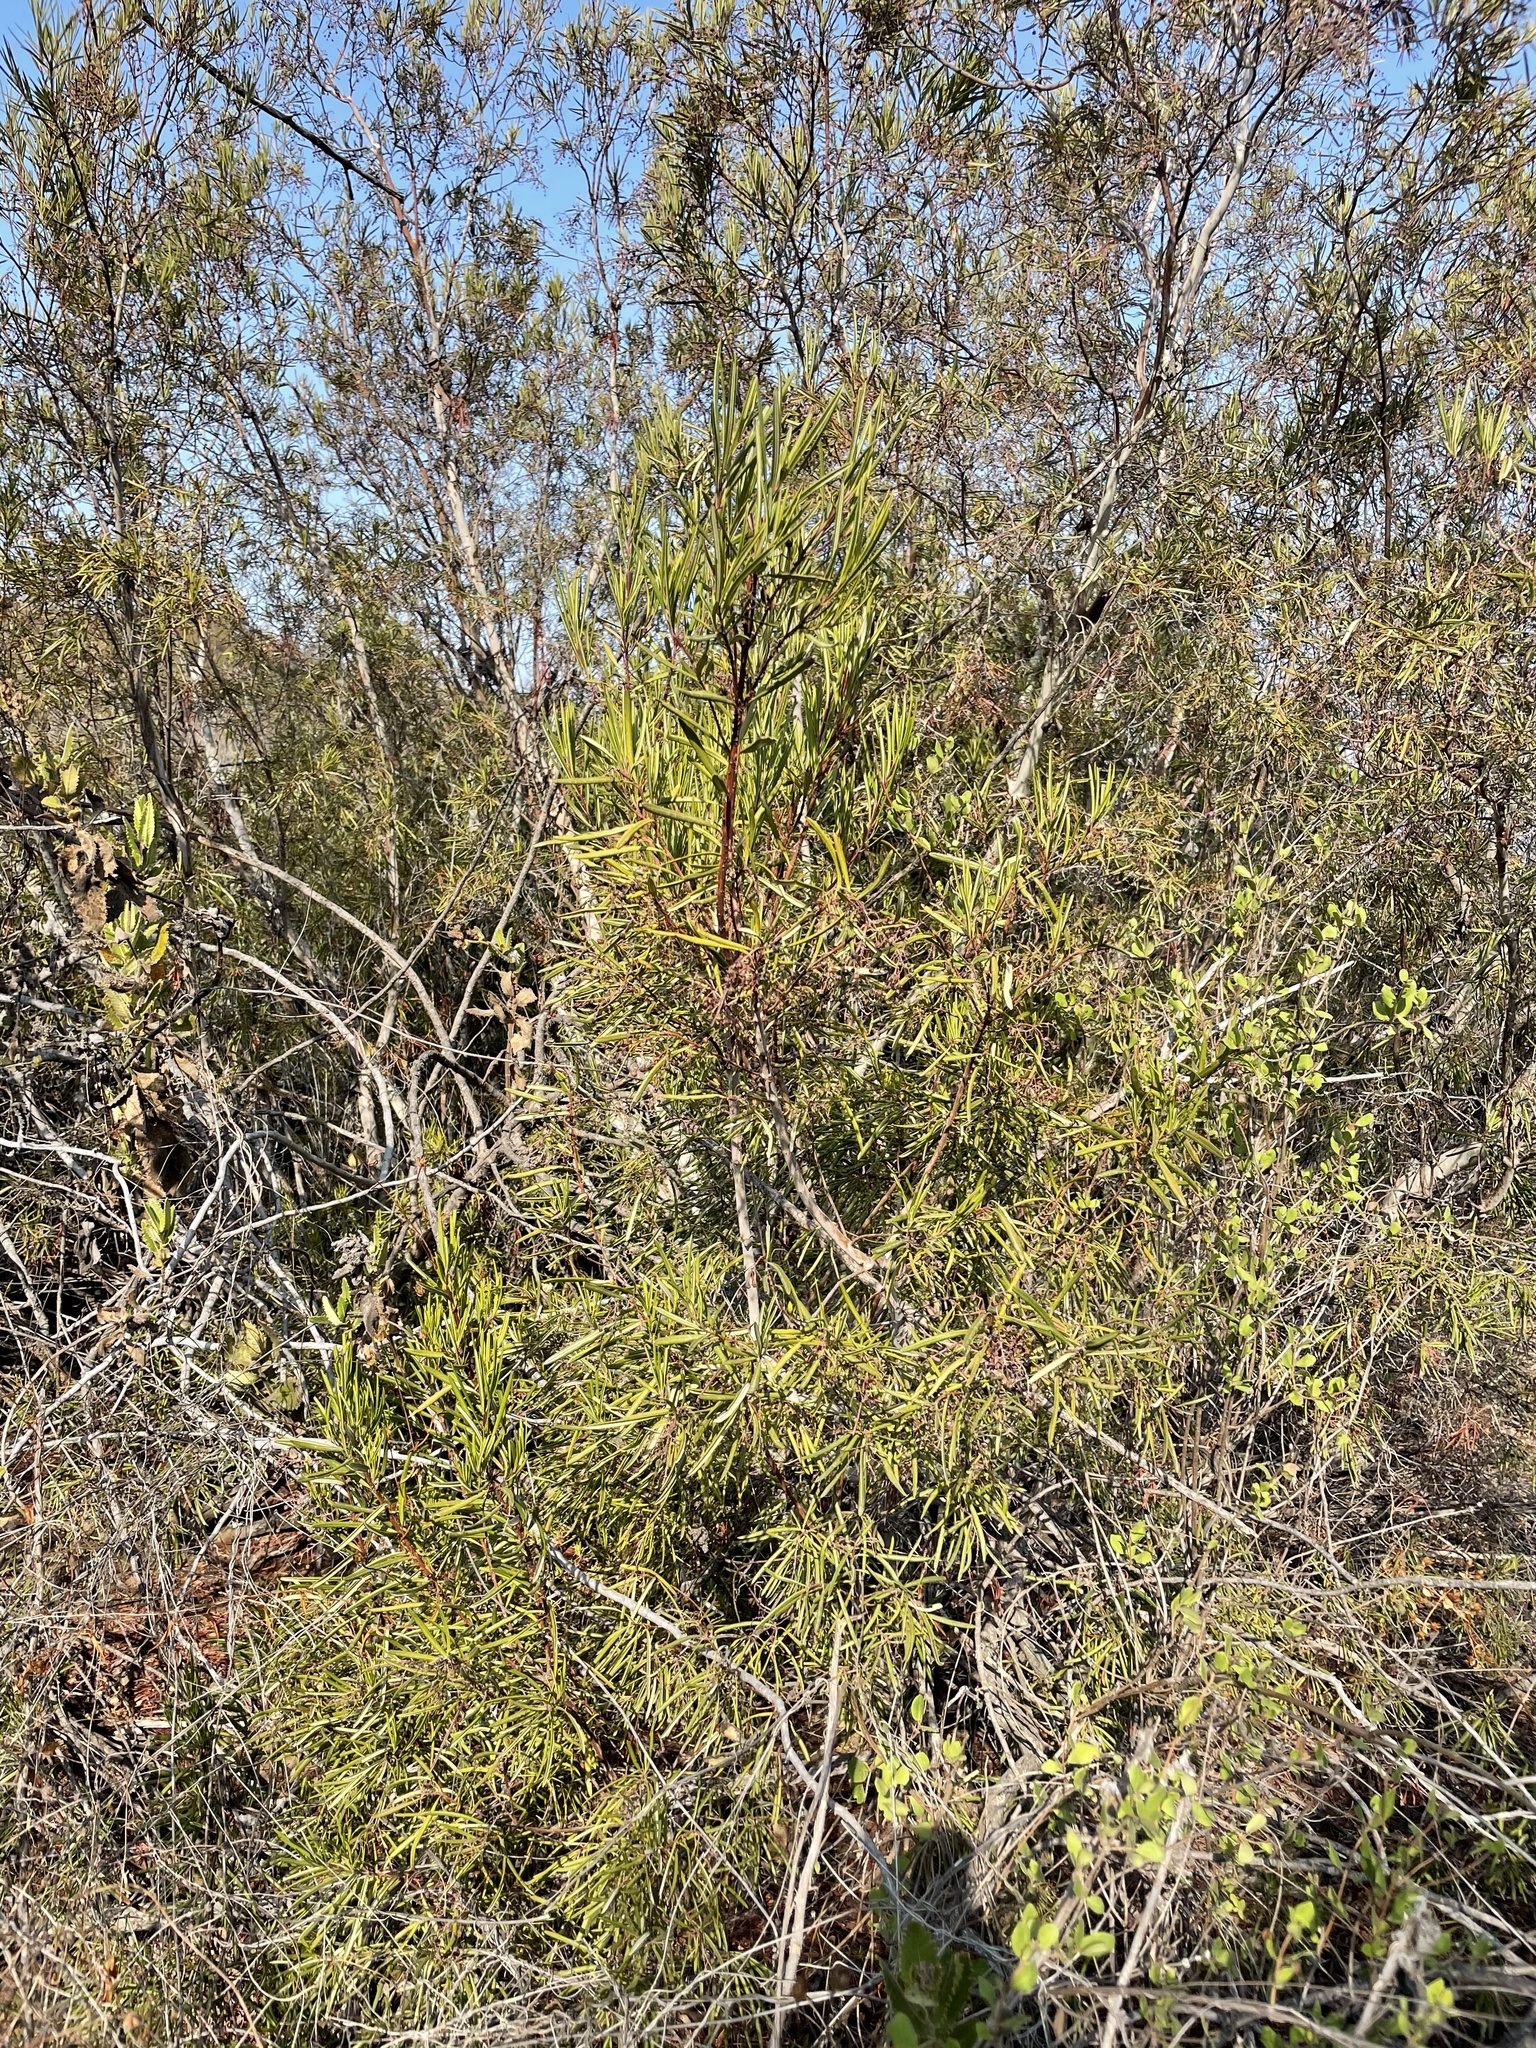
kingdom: Plantae
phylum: Tracheophyta
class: Magnoliopsida
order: Ericales
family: Ericaceae
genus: Ornithostaphylos
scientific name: Ornithostaphylos oppositifolia
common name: Baja california birdbush
